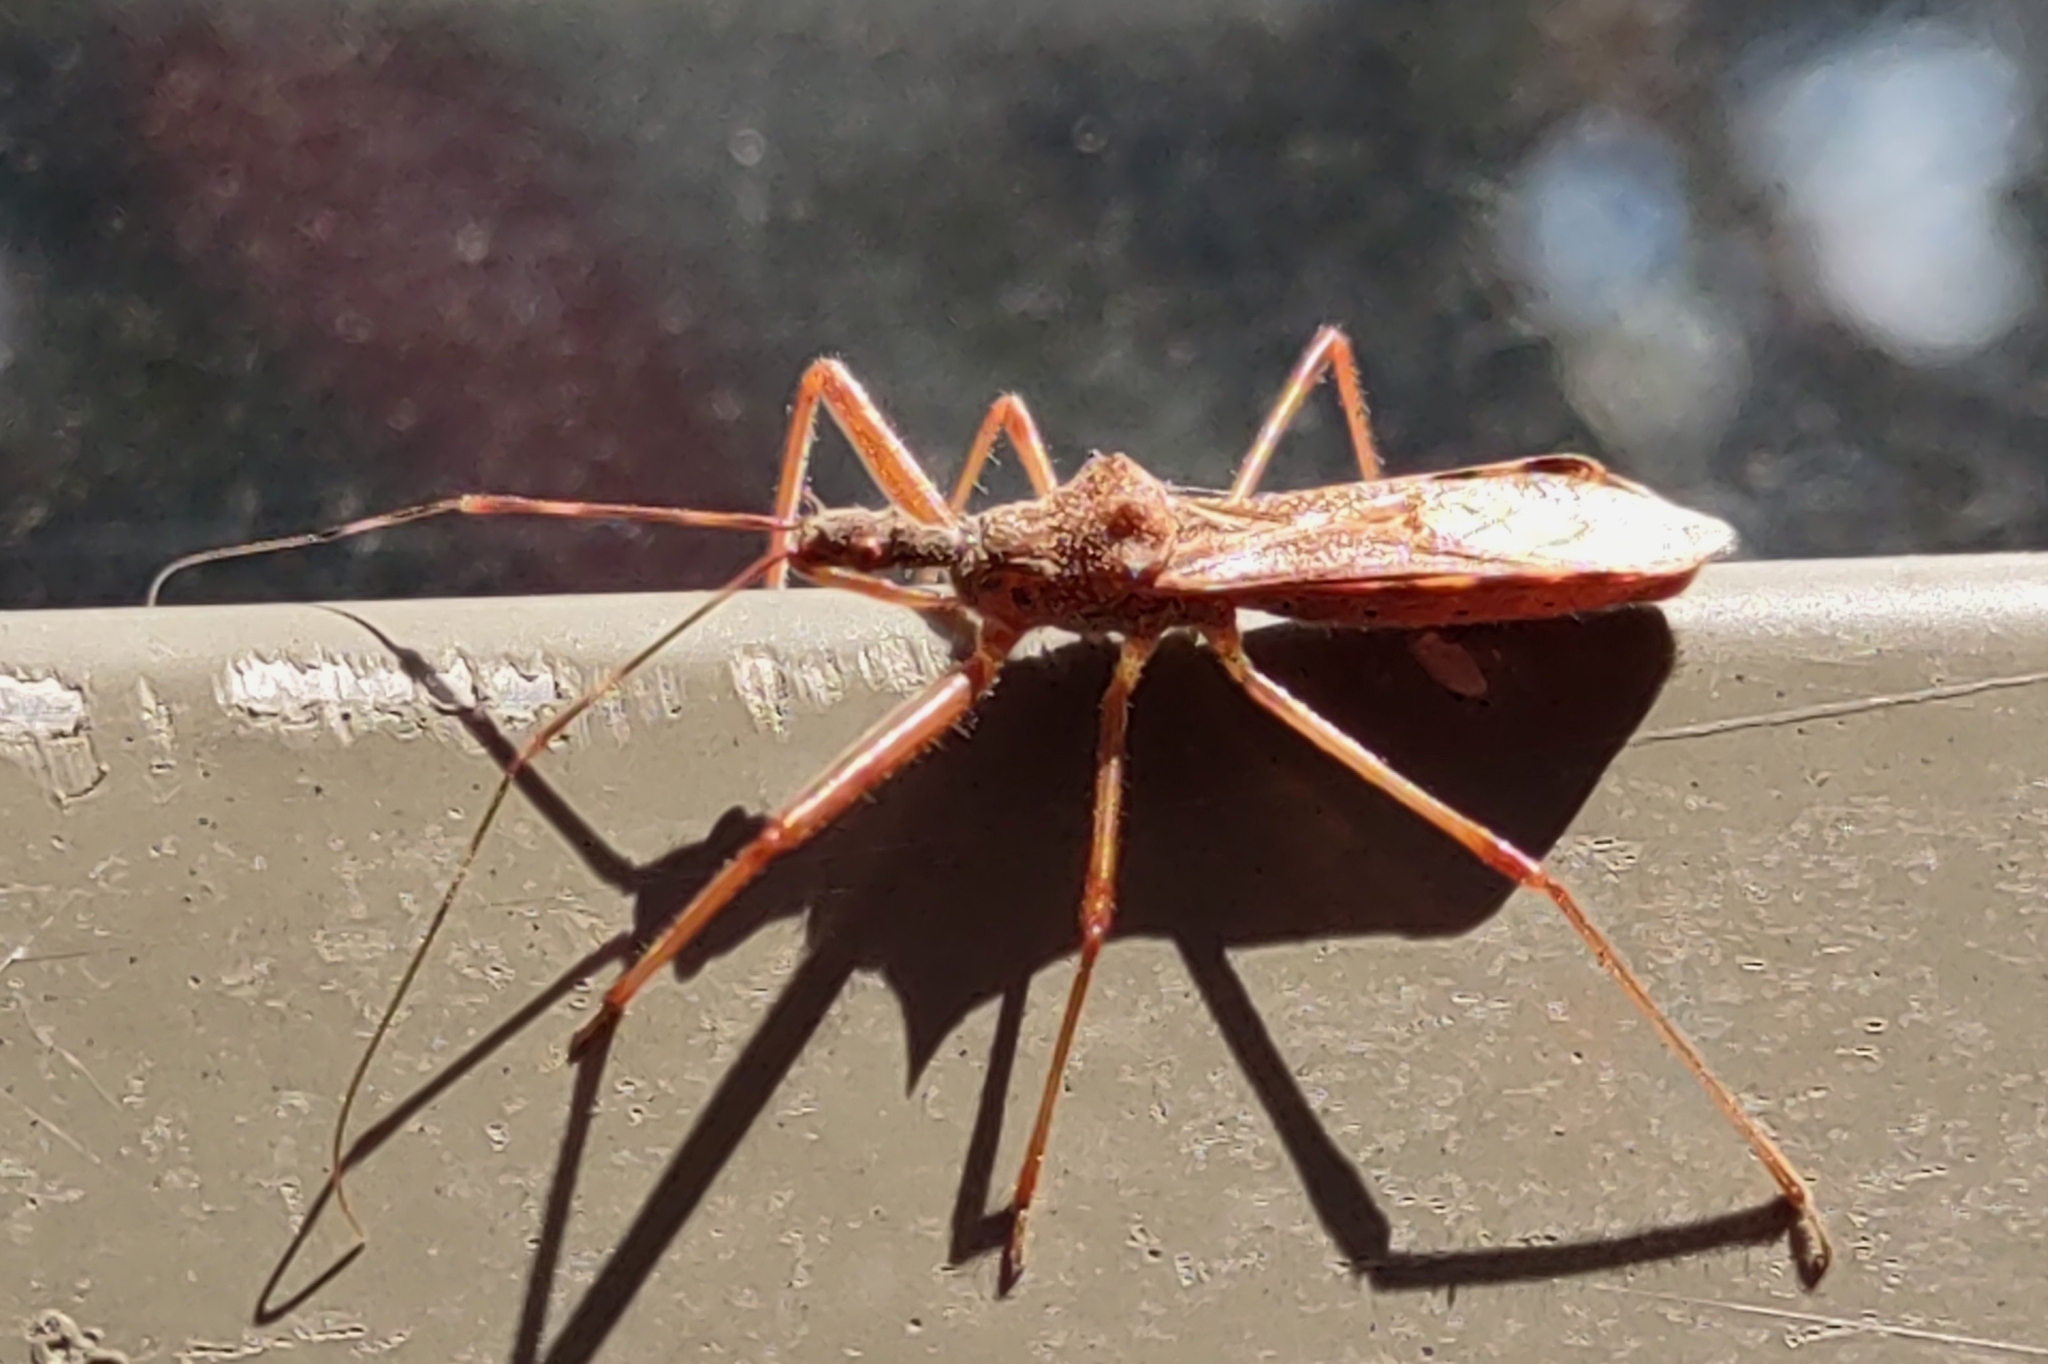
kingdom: Animalia
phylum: Arthropoda
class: Insecta
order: Hemiptera
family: Reduviidae
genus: Nagusta
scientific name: Nagusta goedelii
